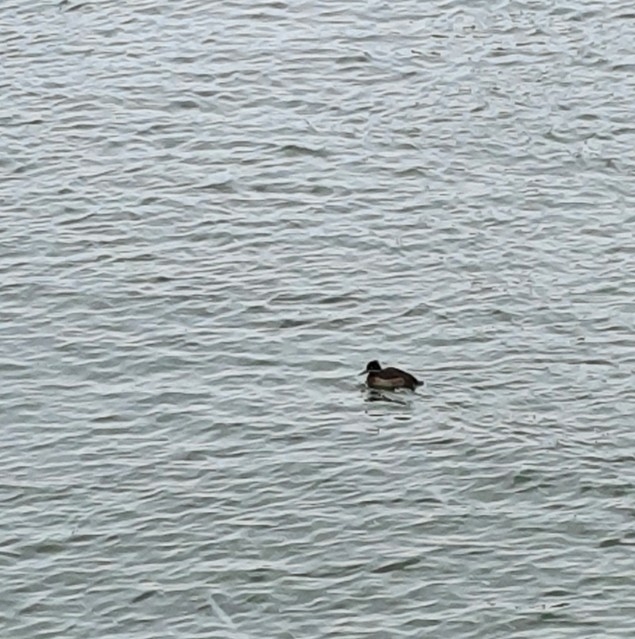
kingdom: Animalia
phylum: Chordata
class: Aves
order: Anseriformes
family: Anatidae
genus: Aythya
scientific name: Aythya fuligula
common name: Tufted duck
